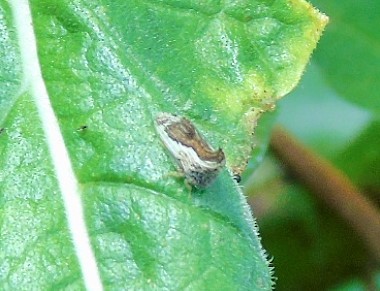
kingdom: Animalia
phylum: Arthropoda
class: Insecta
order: Hemiptera
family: Membracidae
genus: Entylia
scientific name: Entylia carinata
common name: Keeled treehopper
